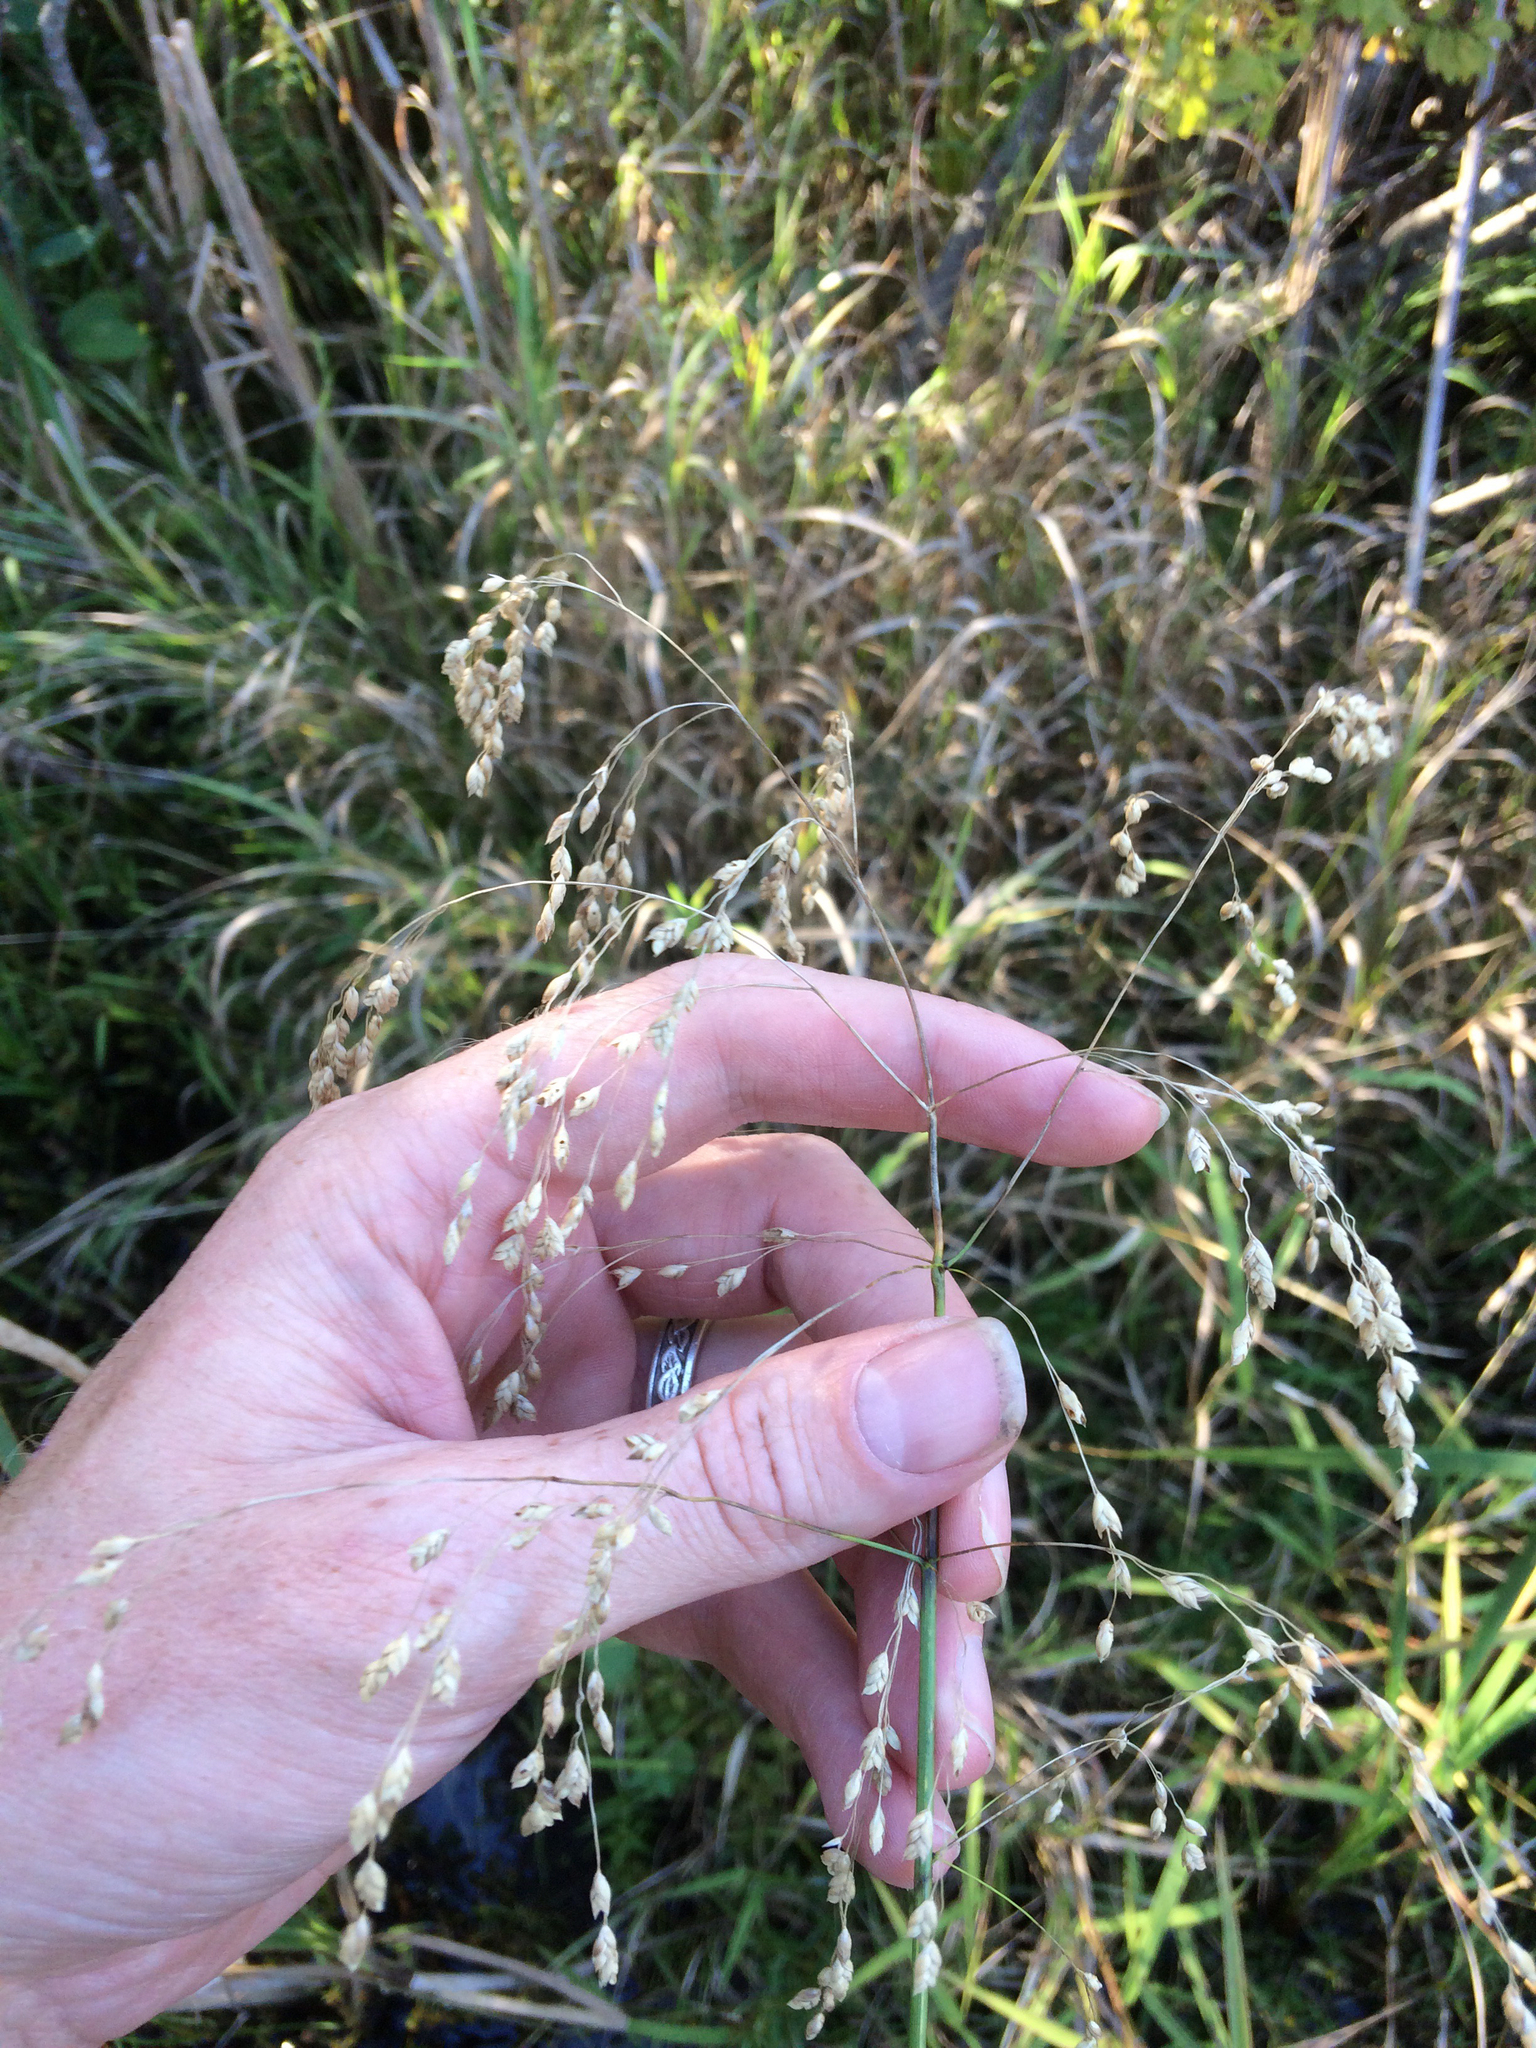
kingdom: Plantae
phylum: Tracheophyta
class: Liliopsida
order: Poales
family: Poaceae
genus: Glyceria
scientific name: Glyceria canadensis
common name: Canada mannagrass
